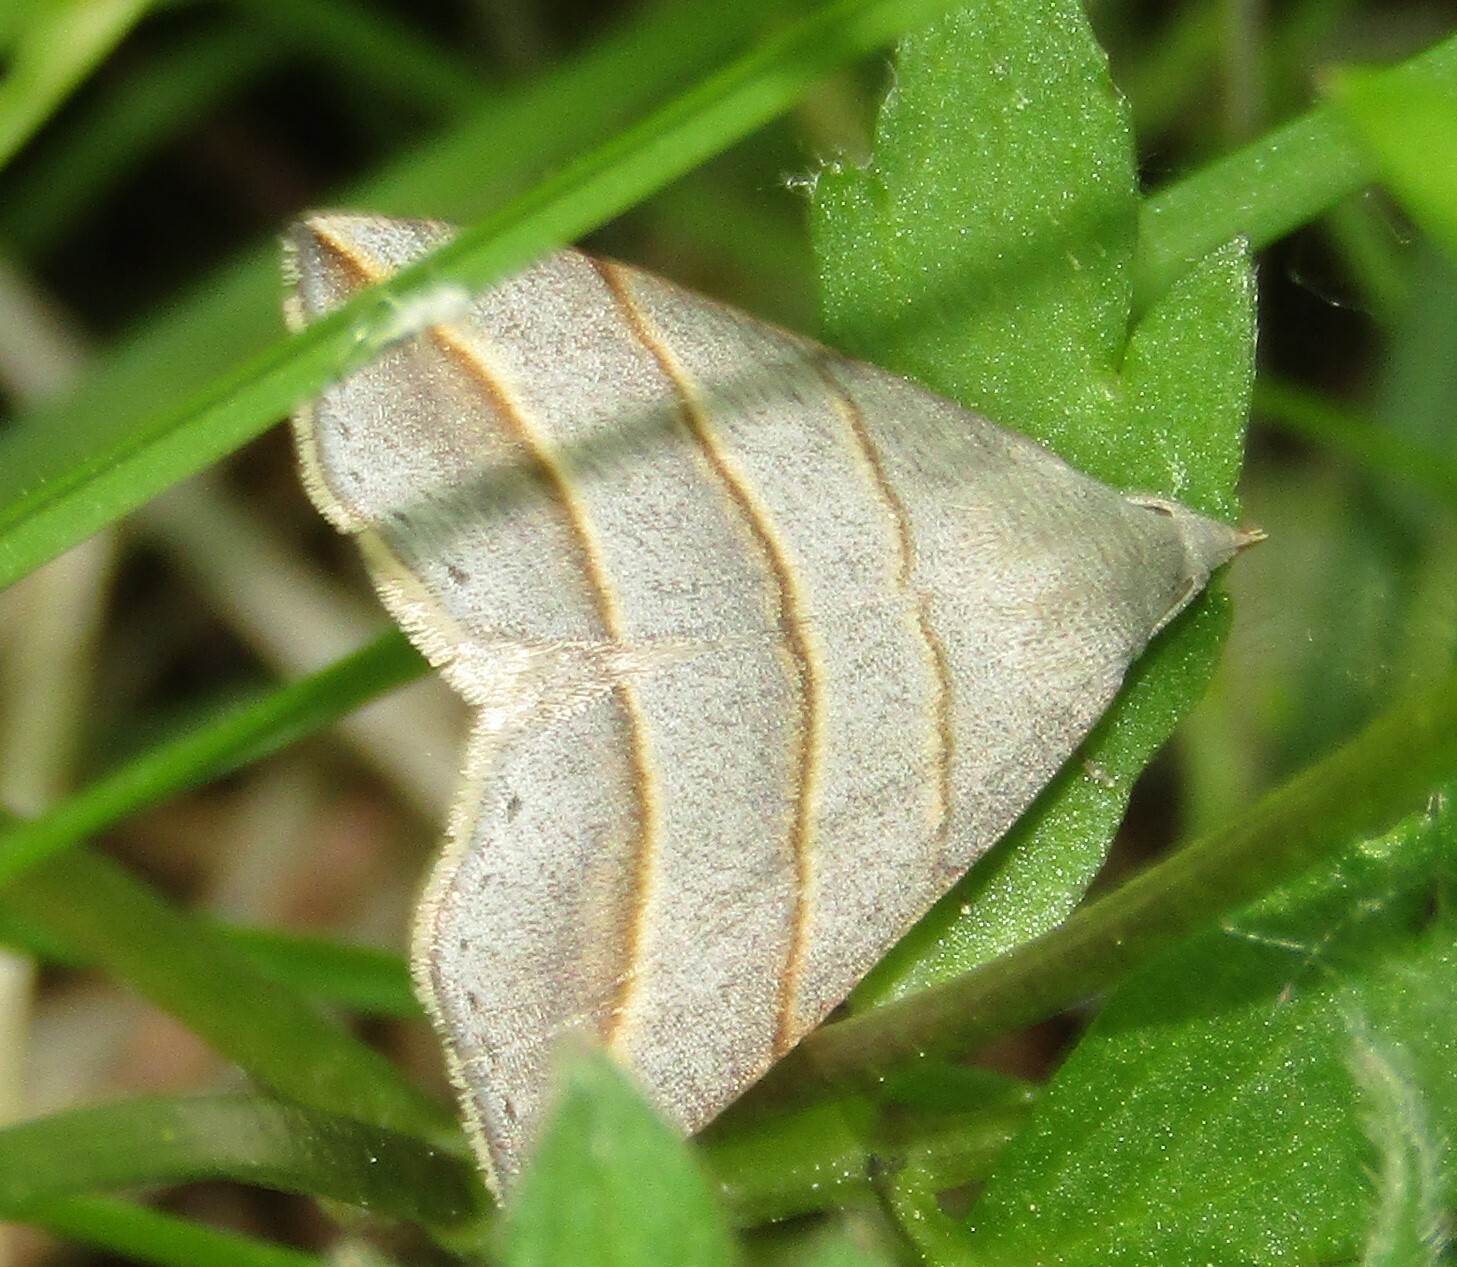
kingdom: Animalia
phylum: Arthropoda
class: Insecta
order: Lepidoptera
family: Erebidae
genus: Colobochyla
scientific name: Colobochyla salicalis
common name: Lesser belle
